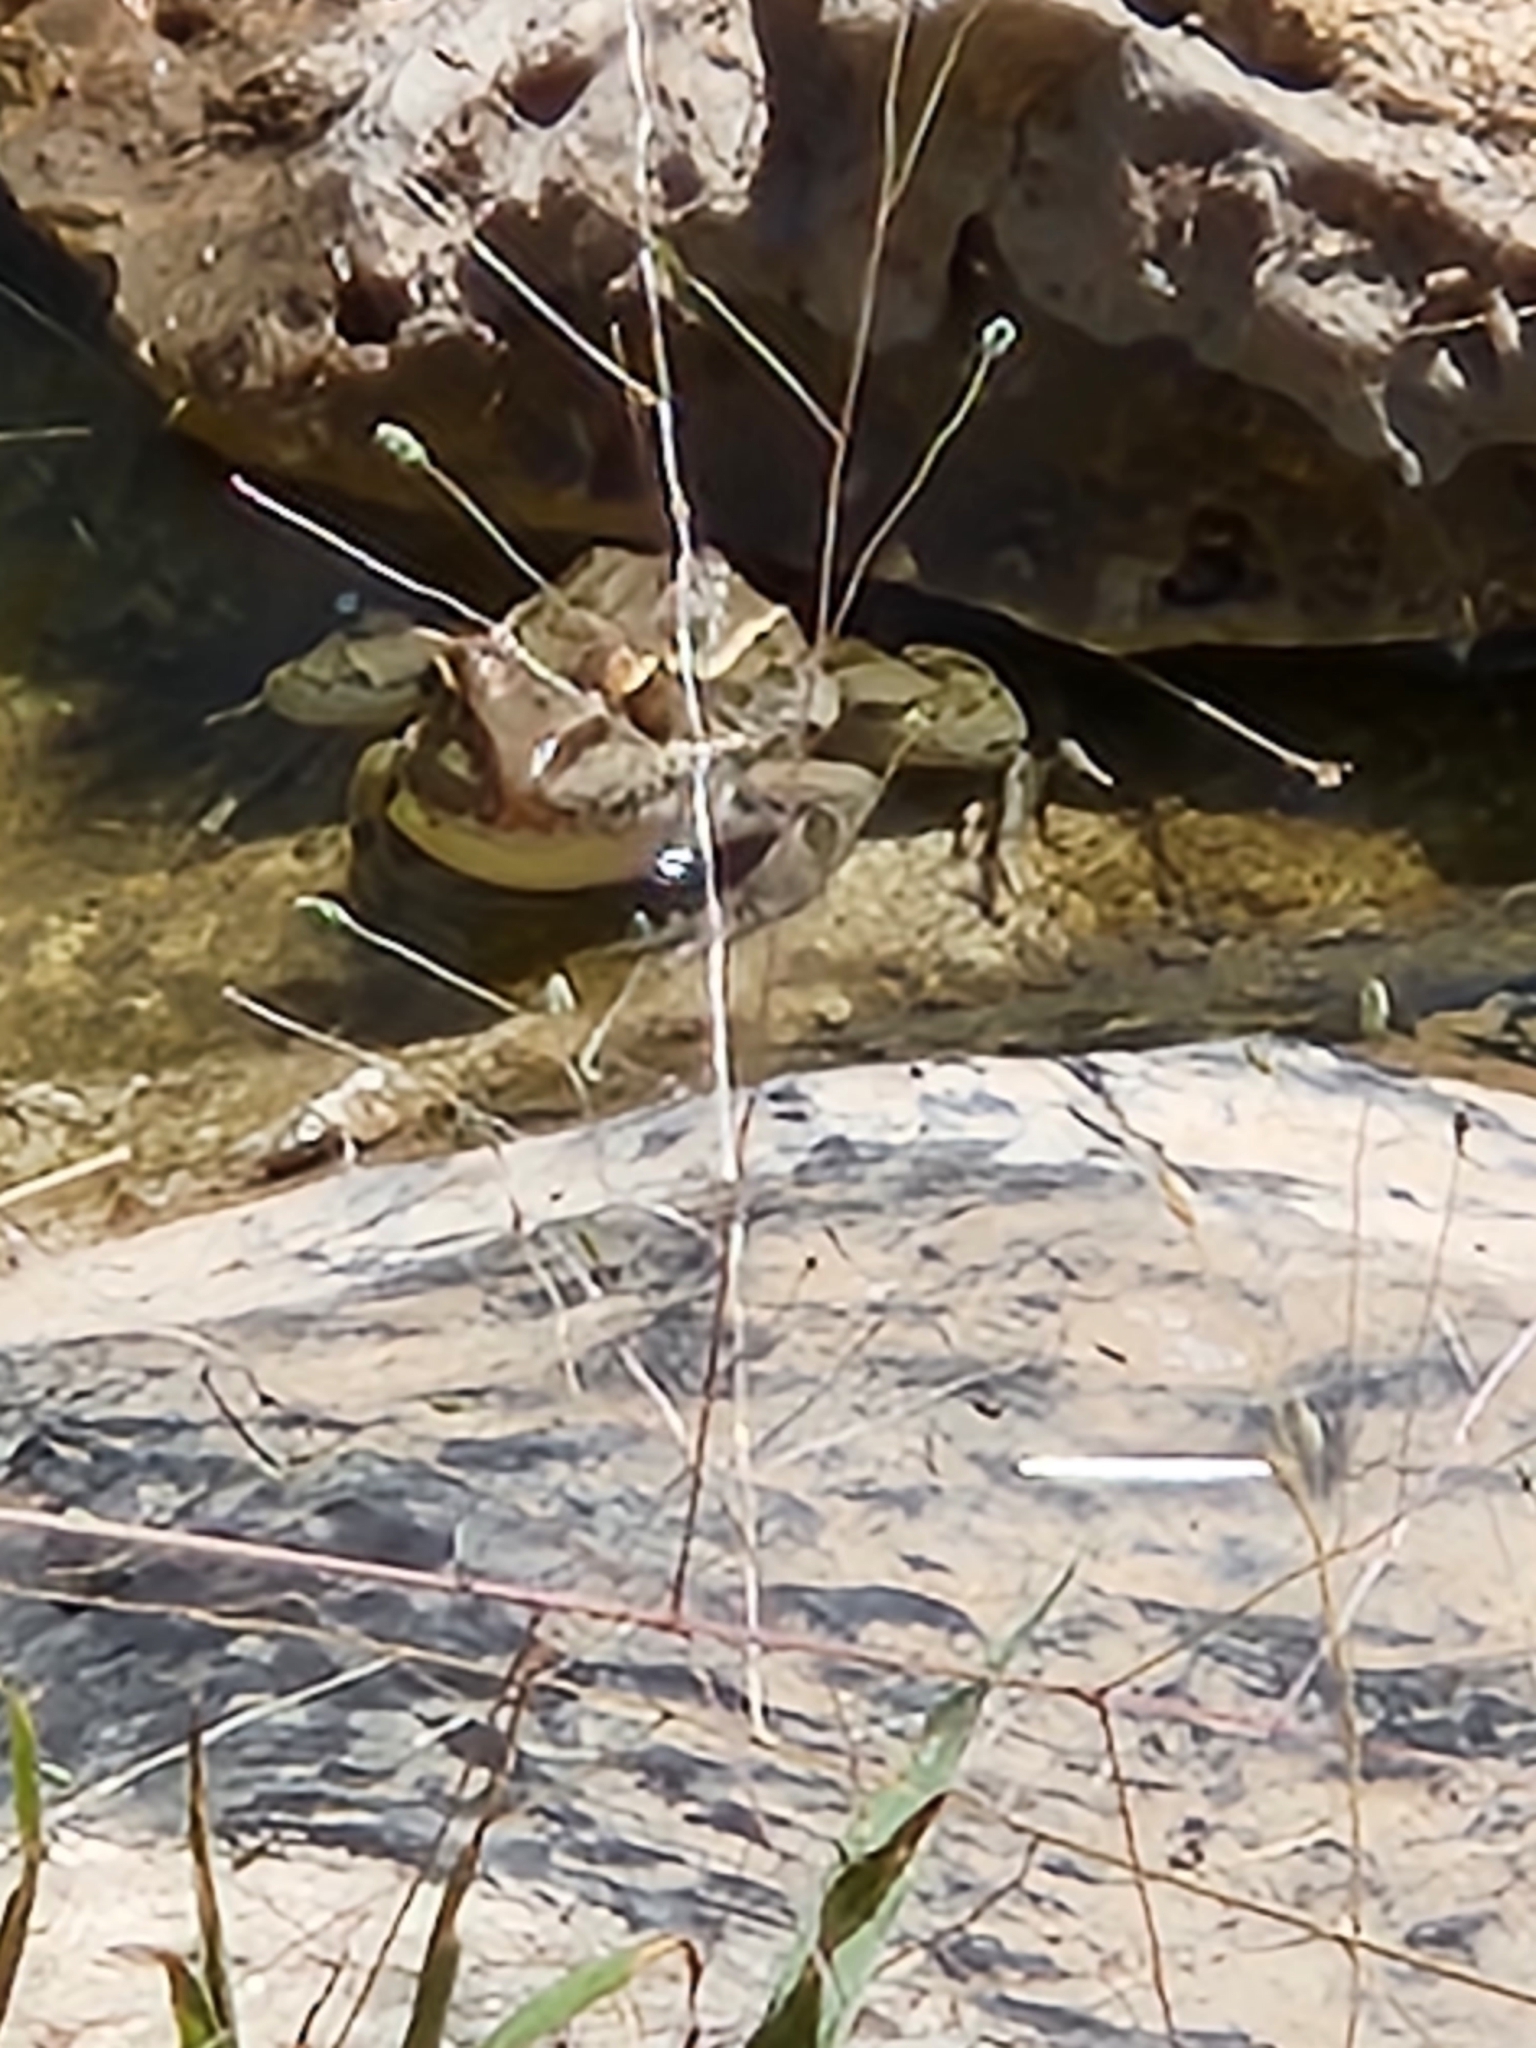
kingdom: Animalia
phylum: Chordata
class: Amphibia
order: Anura
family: Ranidae
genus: Lithobates
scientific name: Lithobates berlandieri
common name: Rio grande leopard frog
